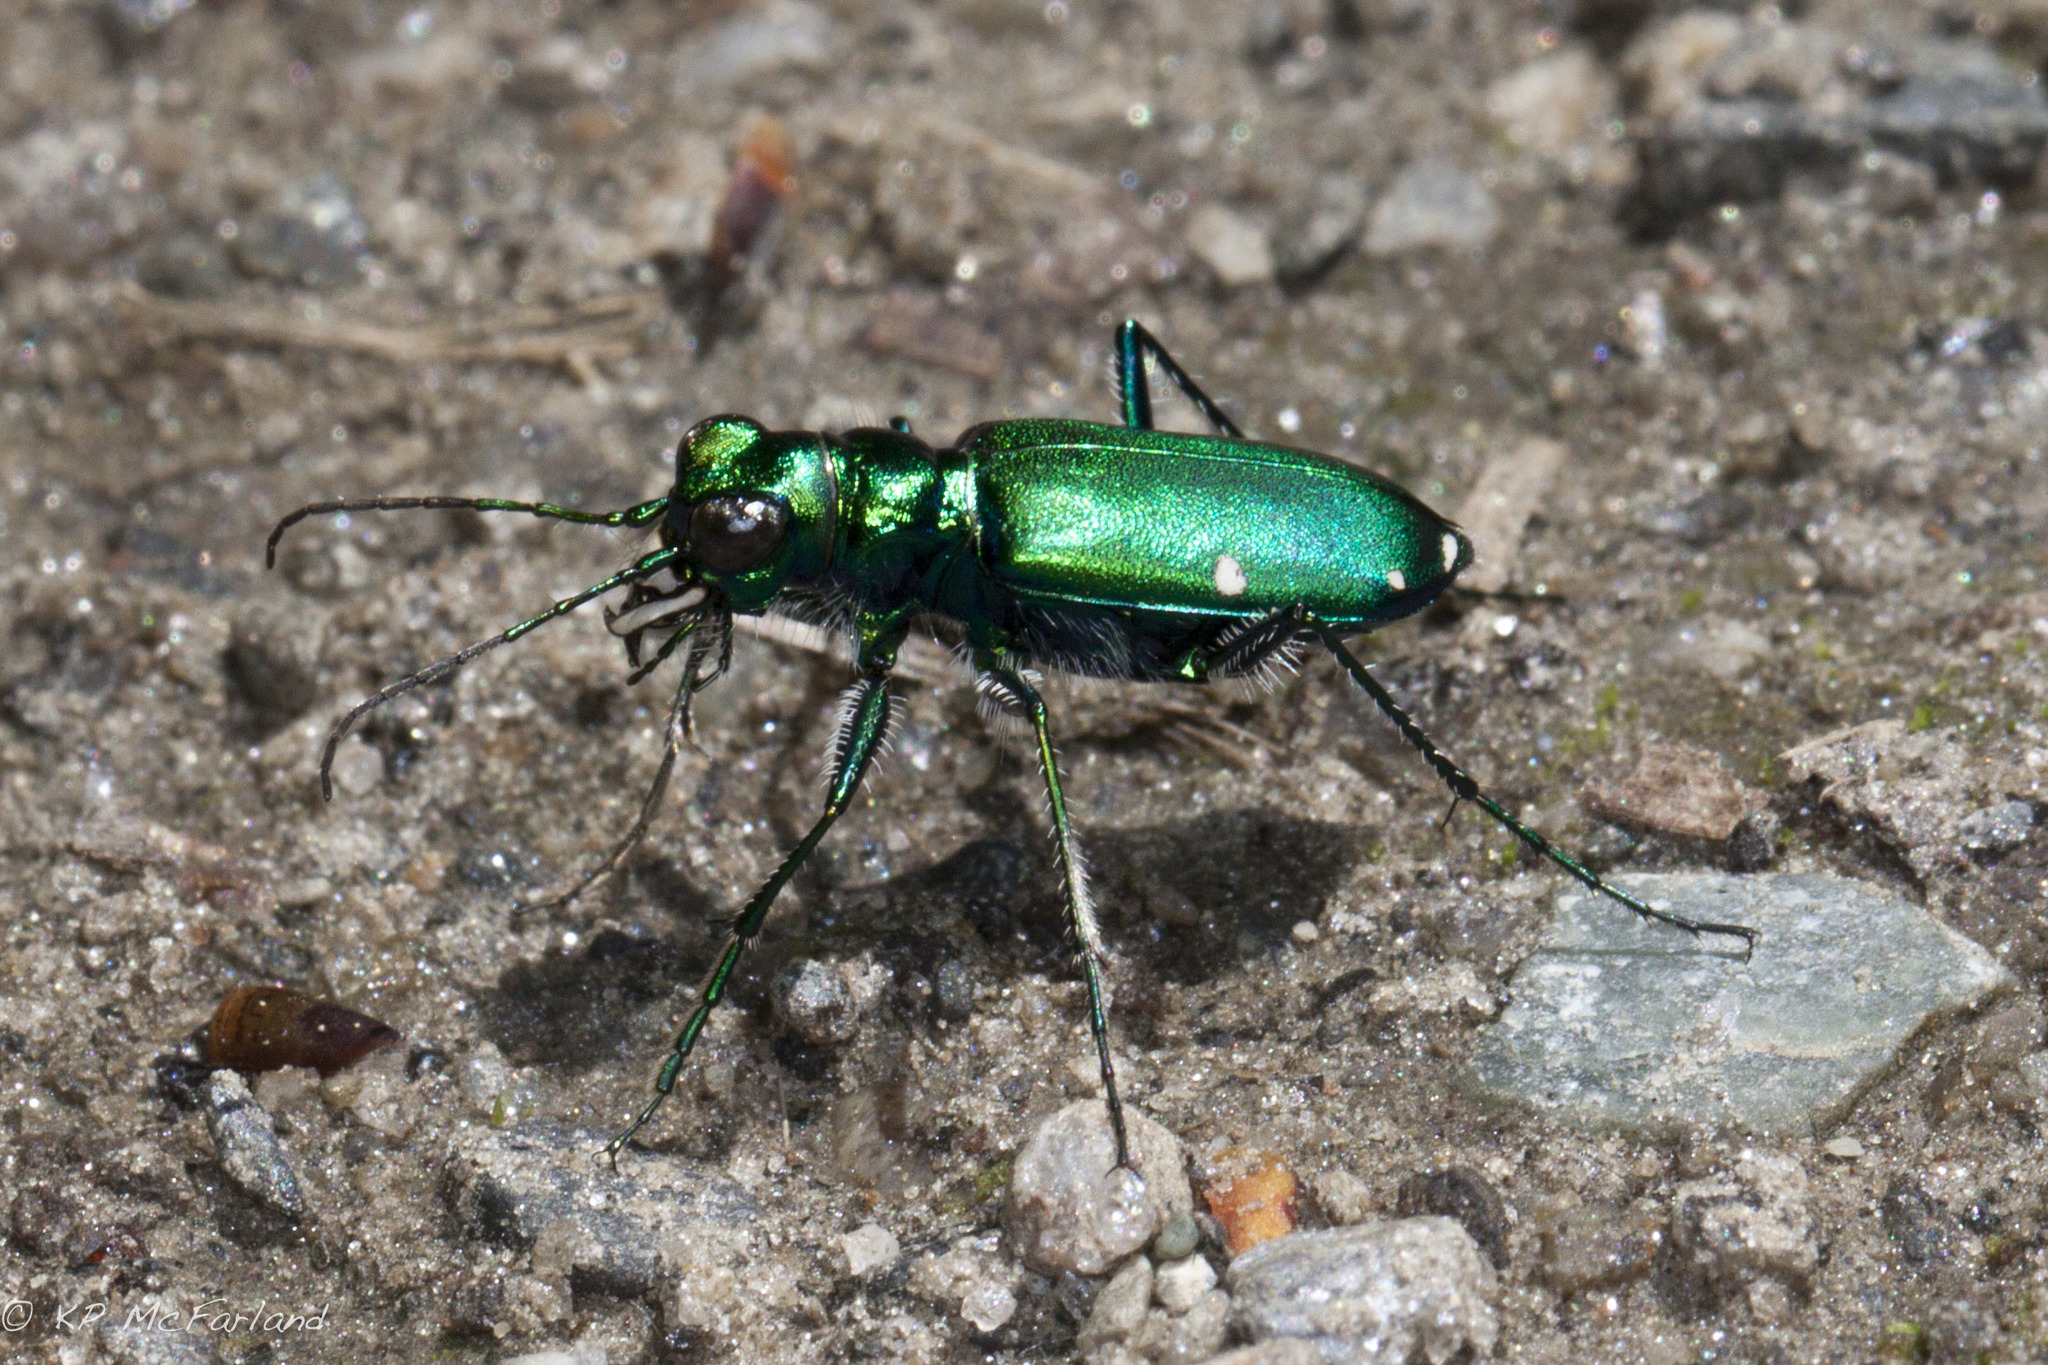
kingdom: Animalia
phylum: Arthropoda
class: Insecta
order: Coleoptera
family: Carabidae
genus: Cicindela
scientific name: Cicindela sexguttata
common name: Six-spotted tiger beetle
